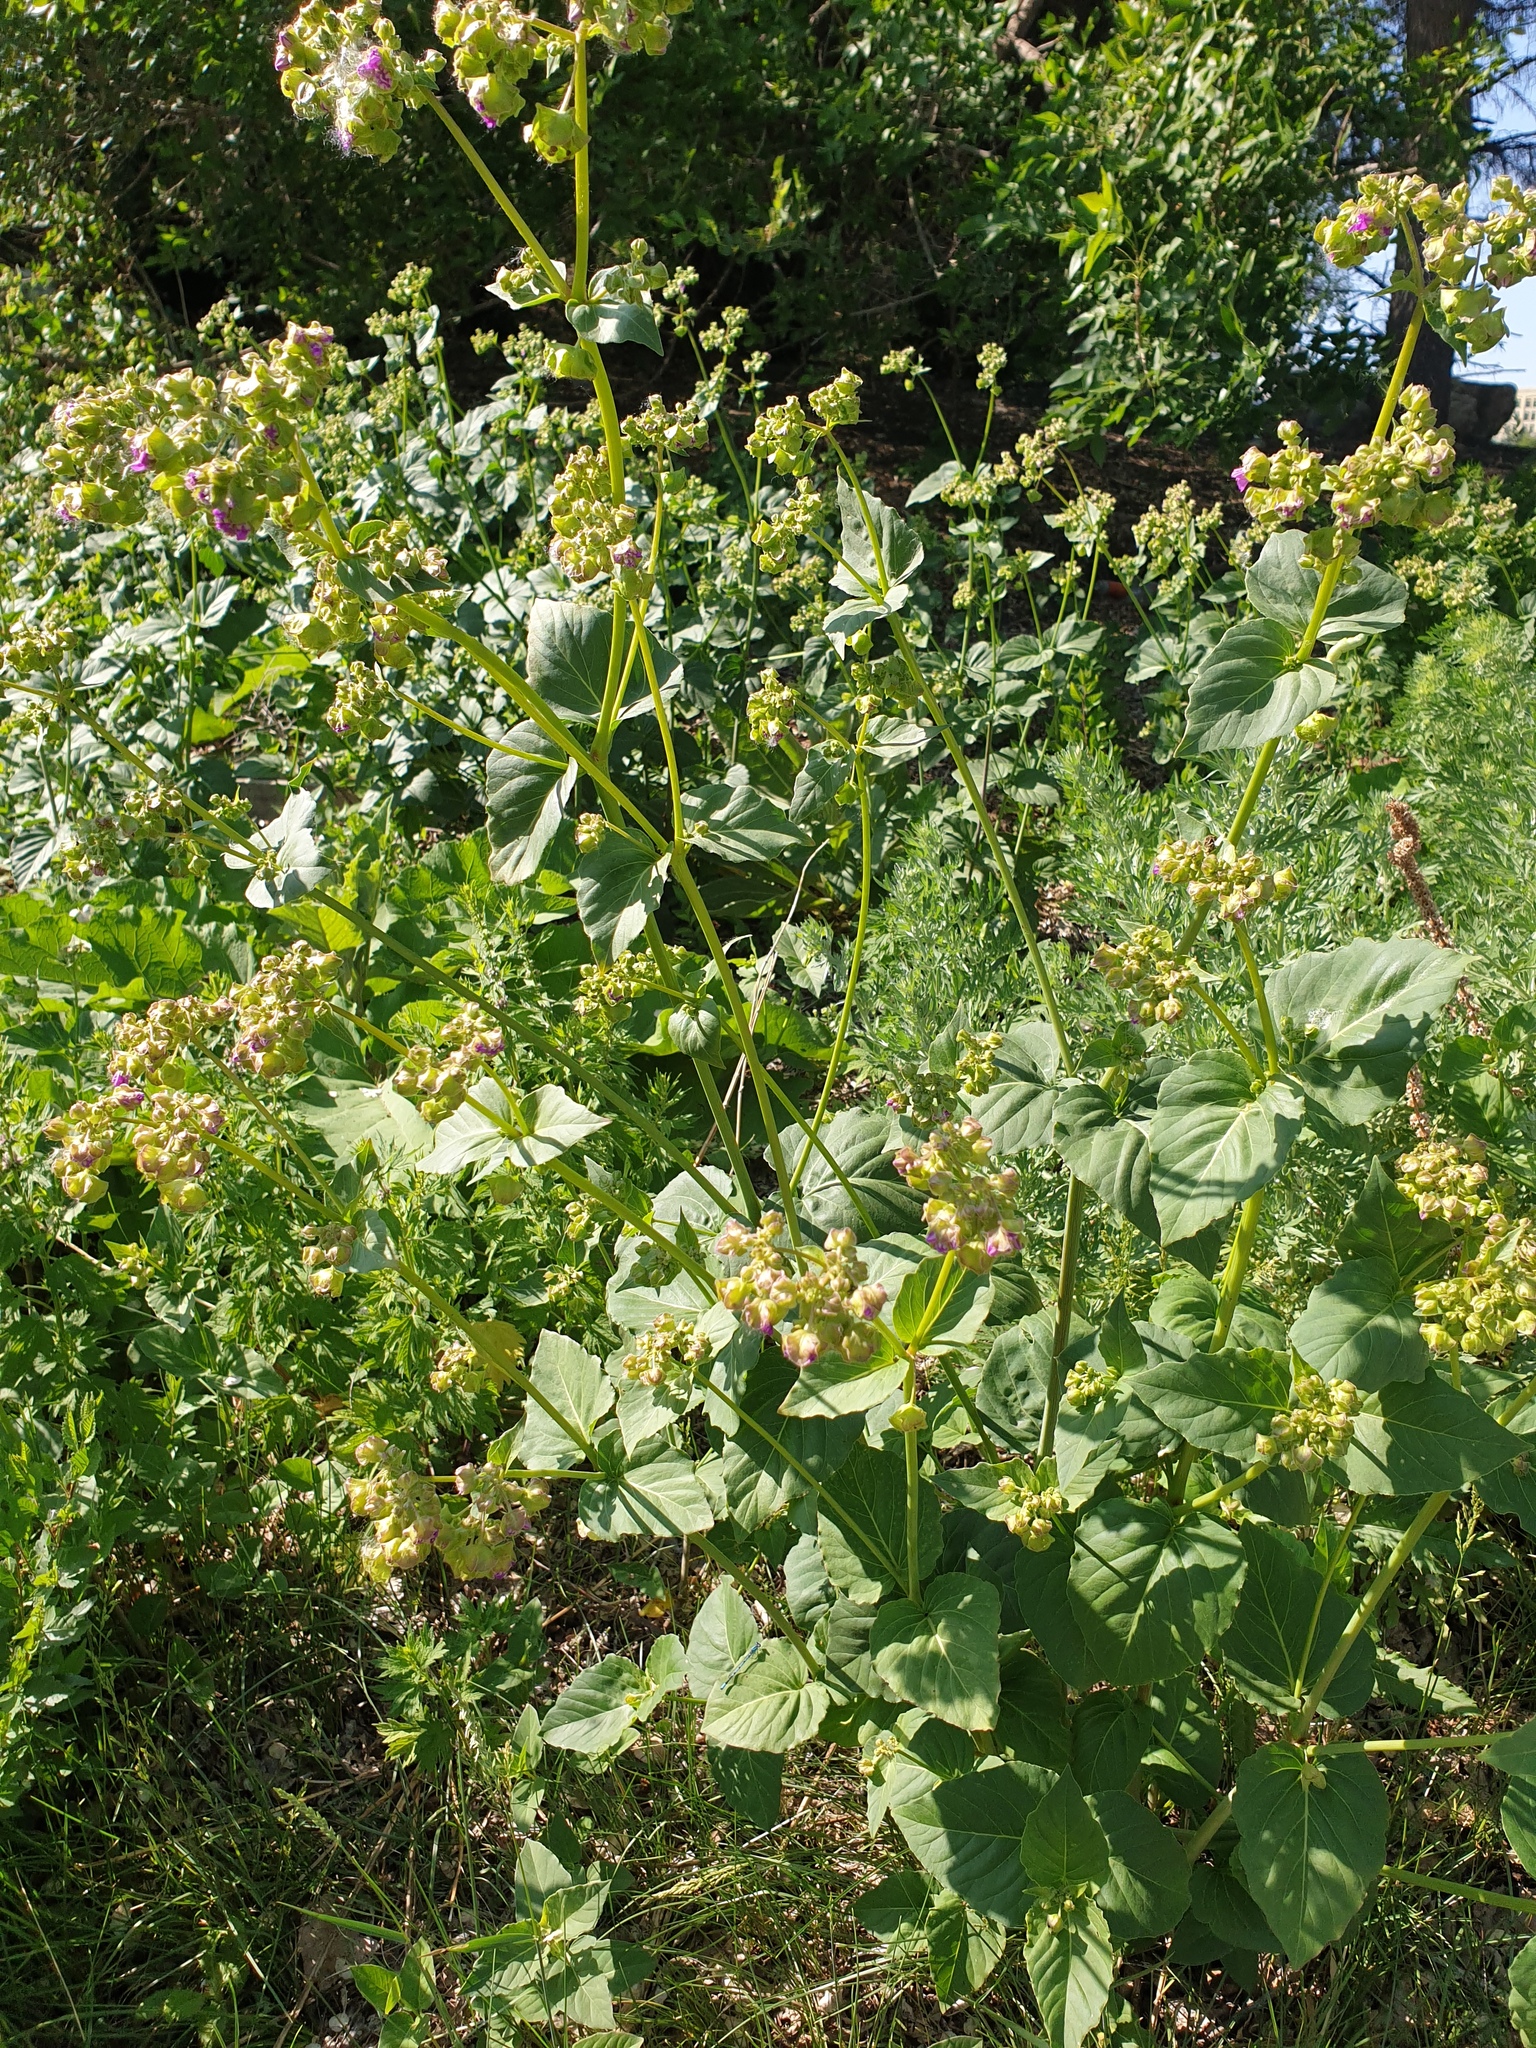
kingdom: Plantae
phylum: Tracheophyta
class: Magnoliopsida
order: Caryophyllales
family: Nyctaginaceae
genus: Mirabilis
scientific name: Mirabilis nyctaginea
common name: Umbrella wort
